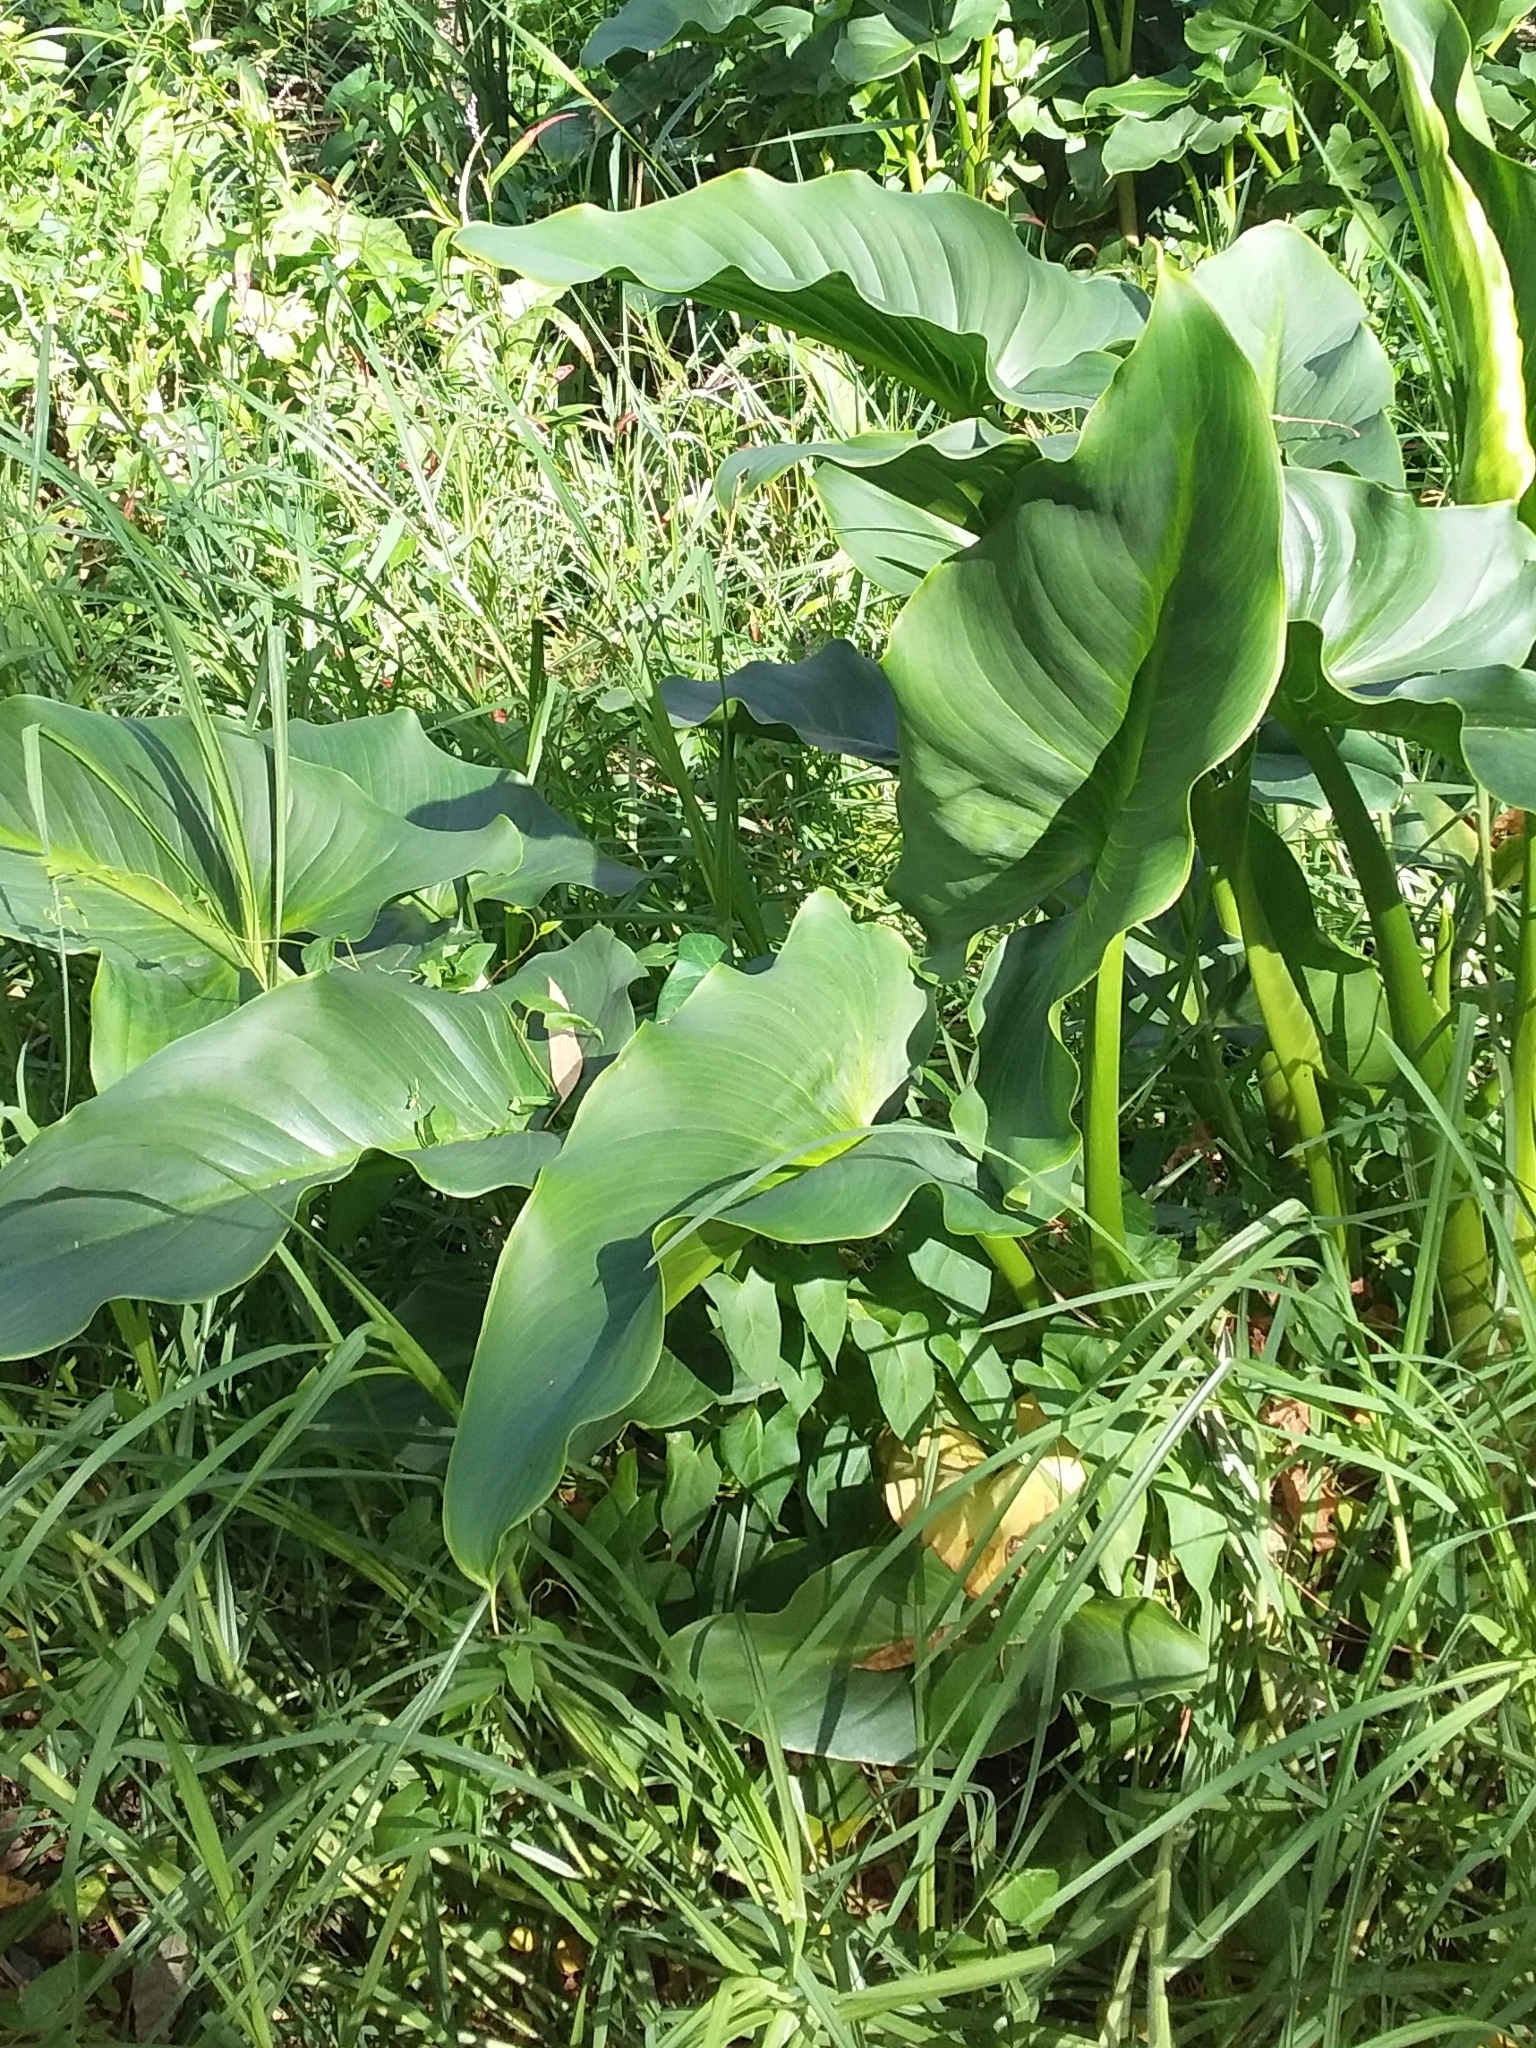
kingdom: Plantae
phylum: Tracheophyta
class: Liliopsida
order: Alismatales
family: Araceae
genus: Zantedeschia
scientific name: Zantedeschia aethiopica
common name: Altar-lily
